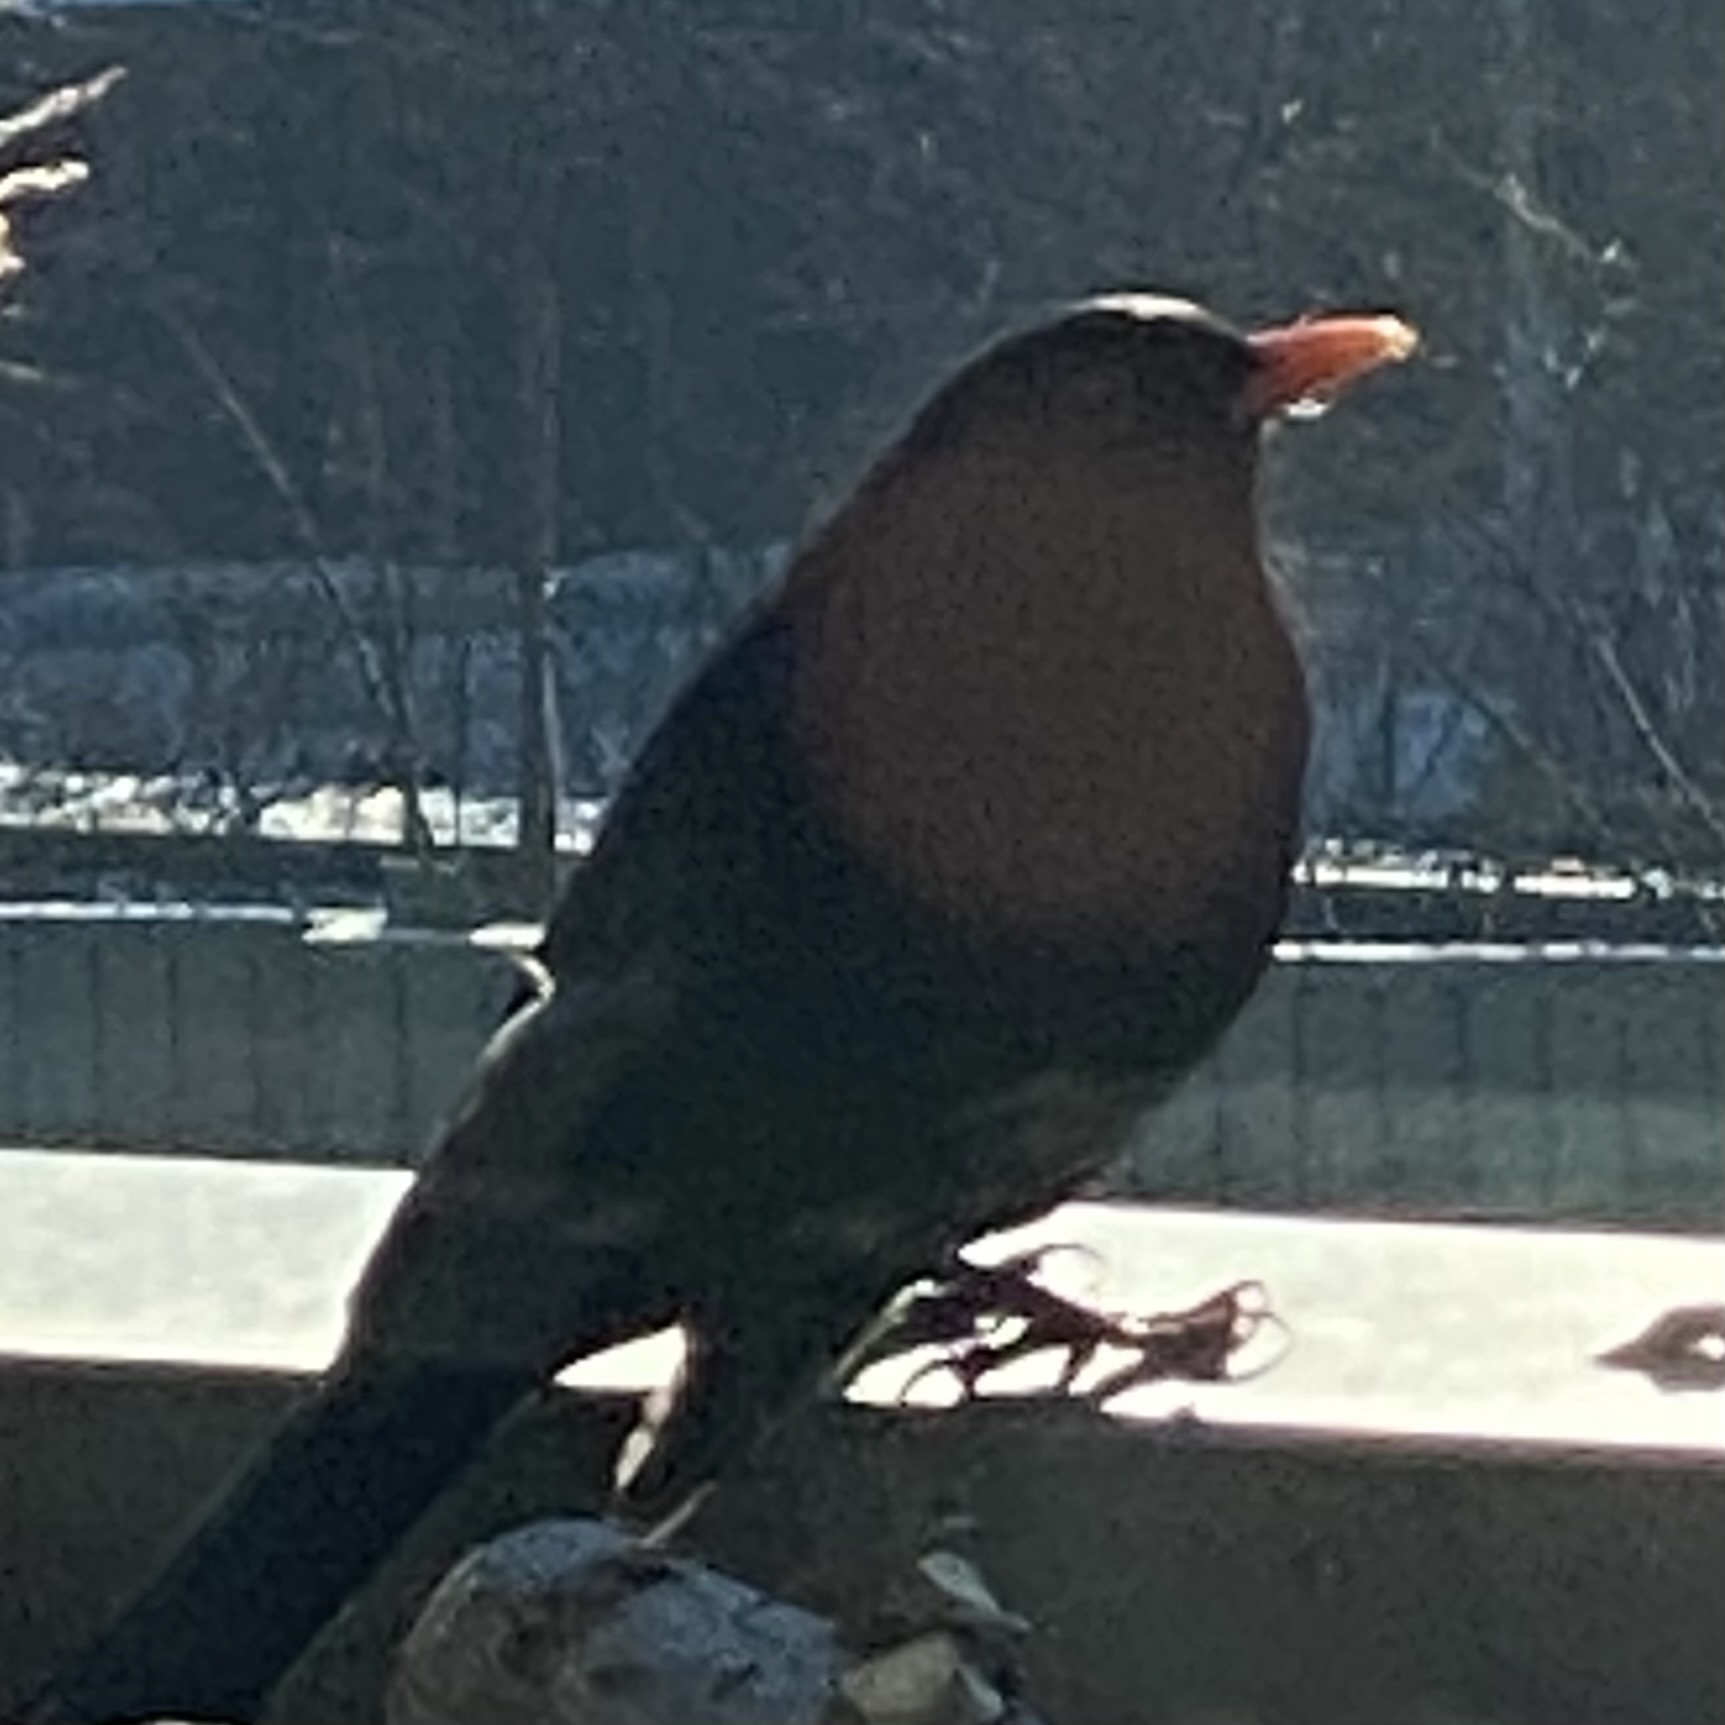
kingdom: Animalia
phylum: Chordata
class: Aves
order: Passeriformes
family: Turdidae
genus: Turdus
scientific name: Turdus merula
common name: Common blackbird
